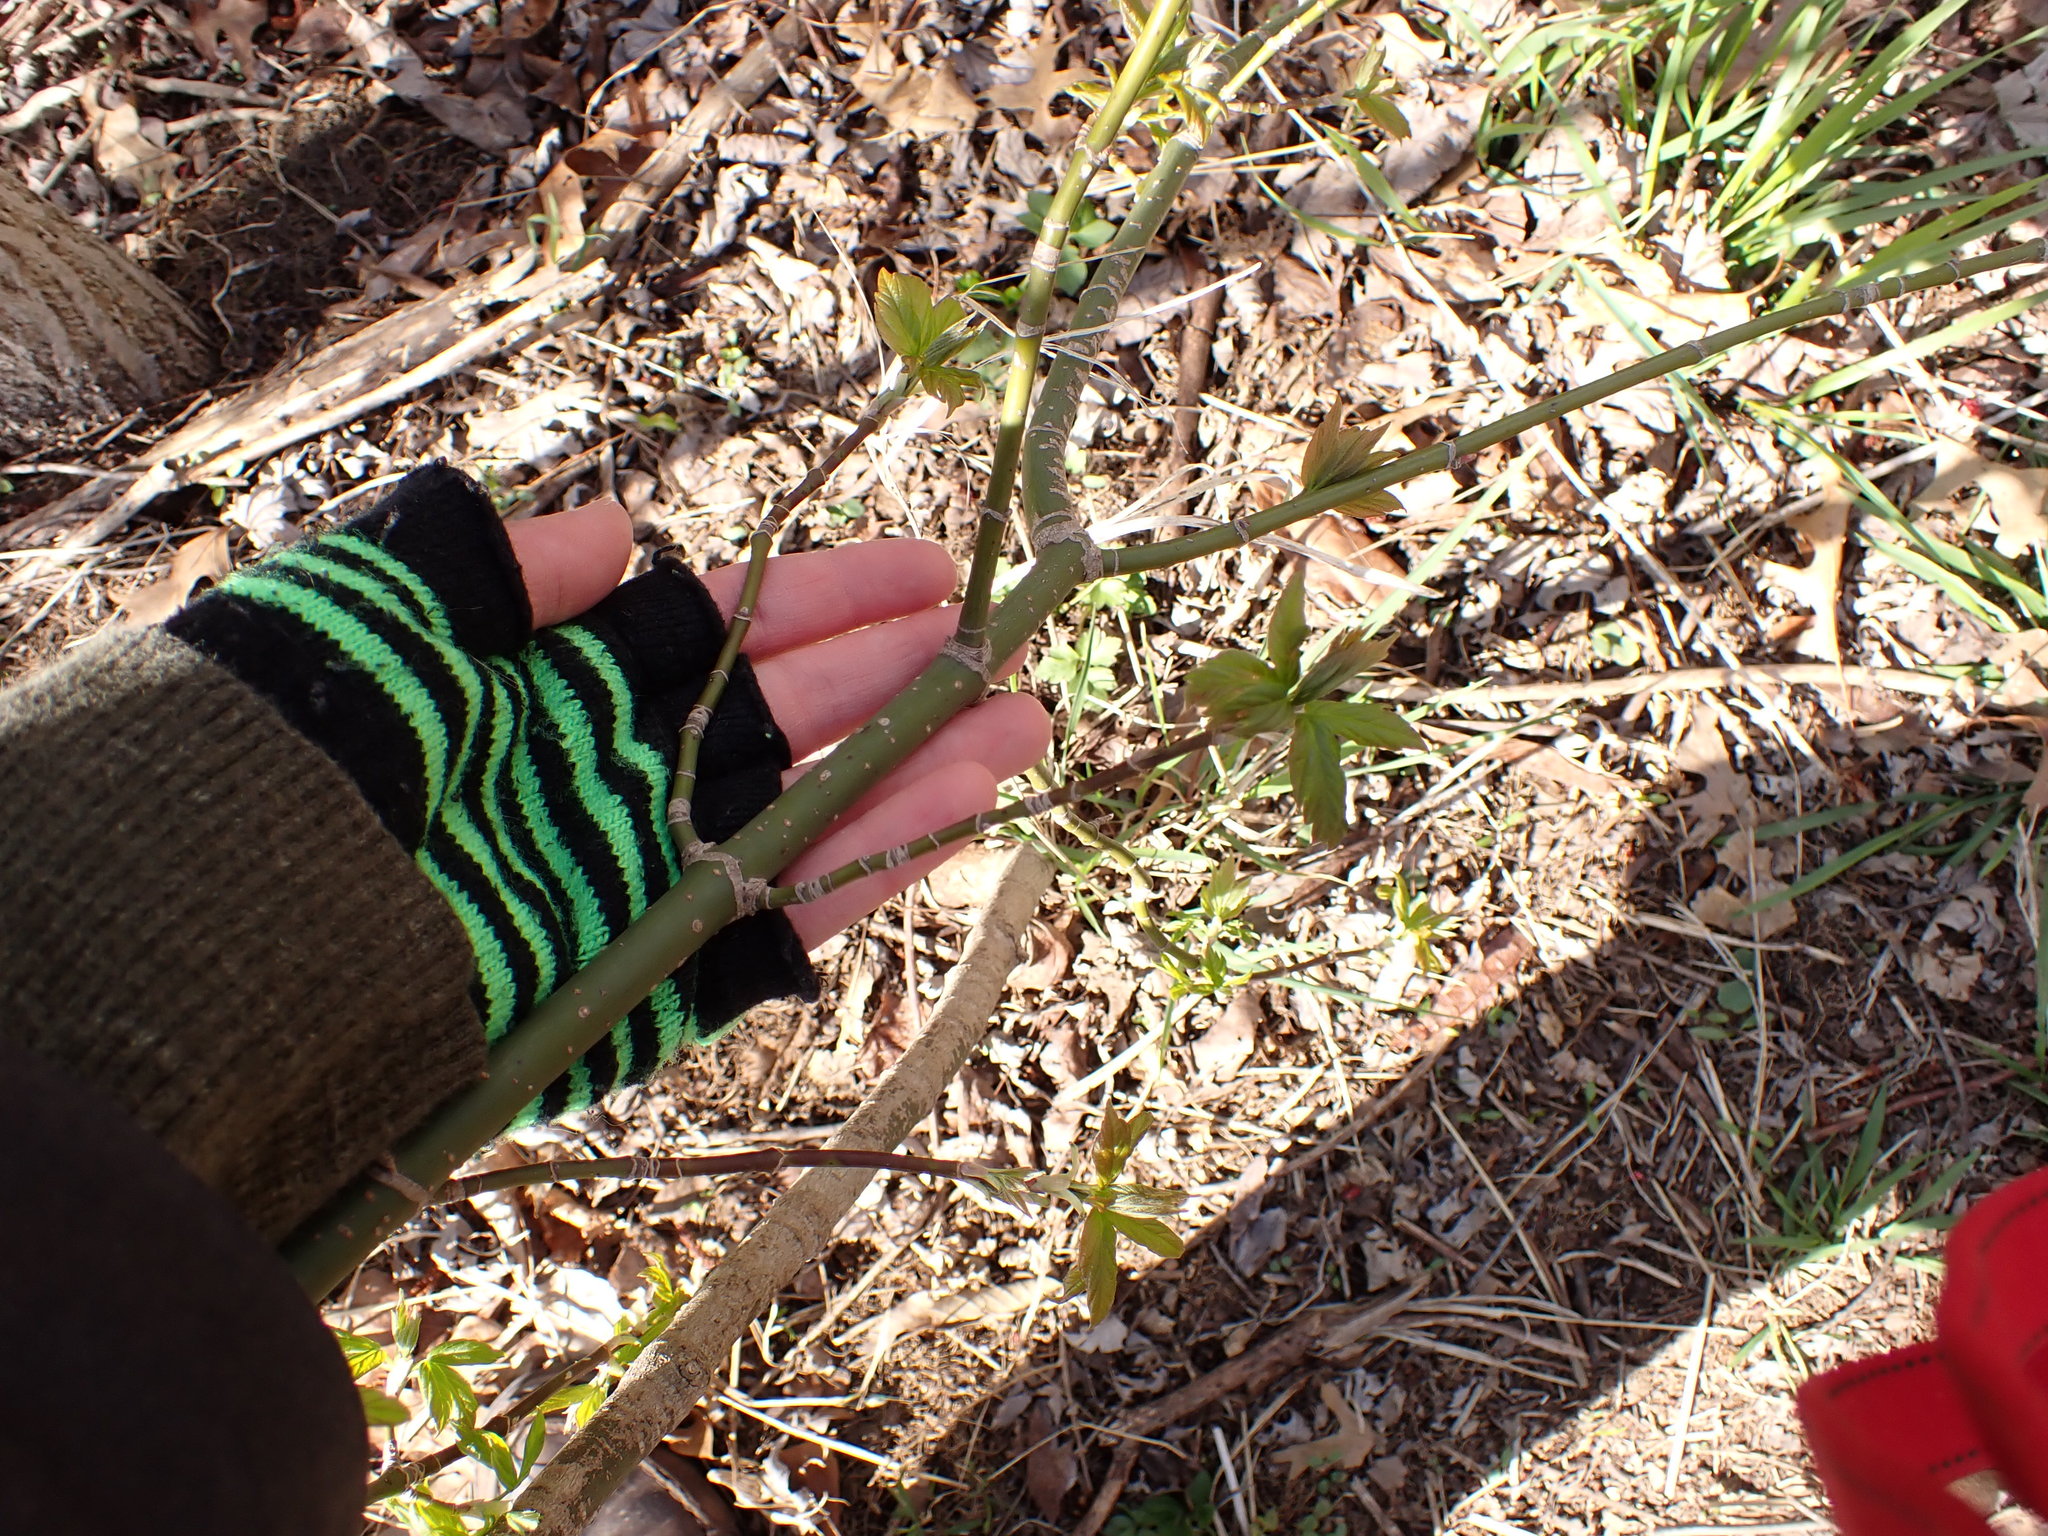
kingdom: Plantae
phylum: Tracheophyta
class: Magnoliopsida
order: Sapindales
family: Sapindaceae
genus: Acer
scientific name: Acer negundo
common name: Ashleaf maple
